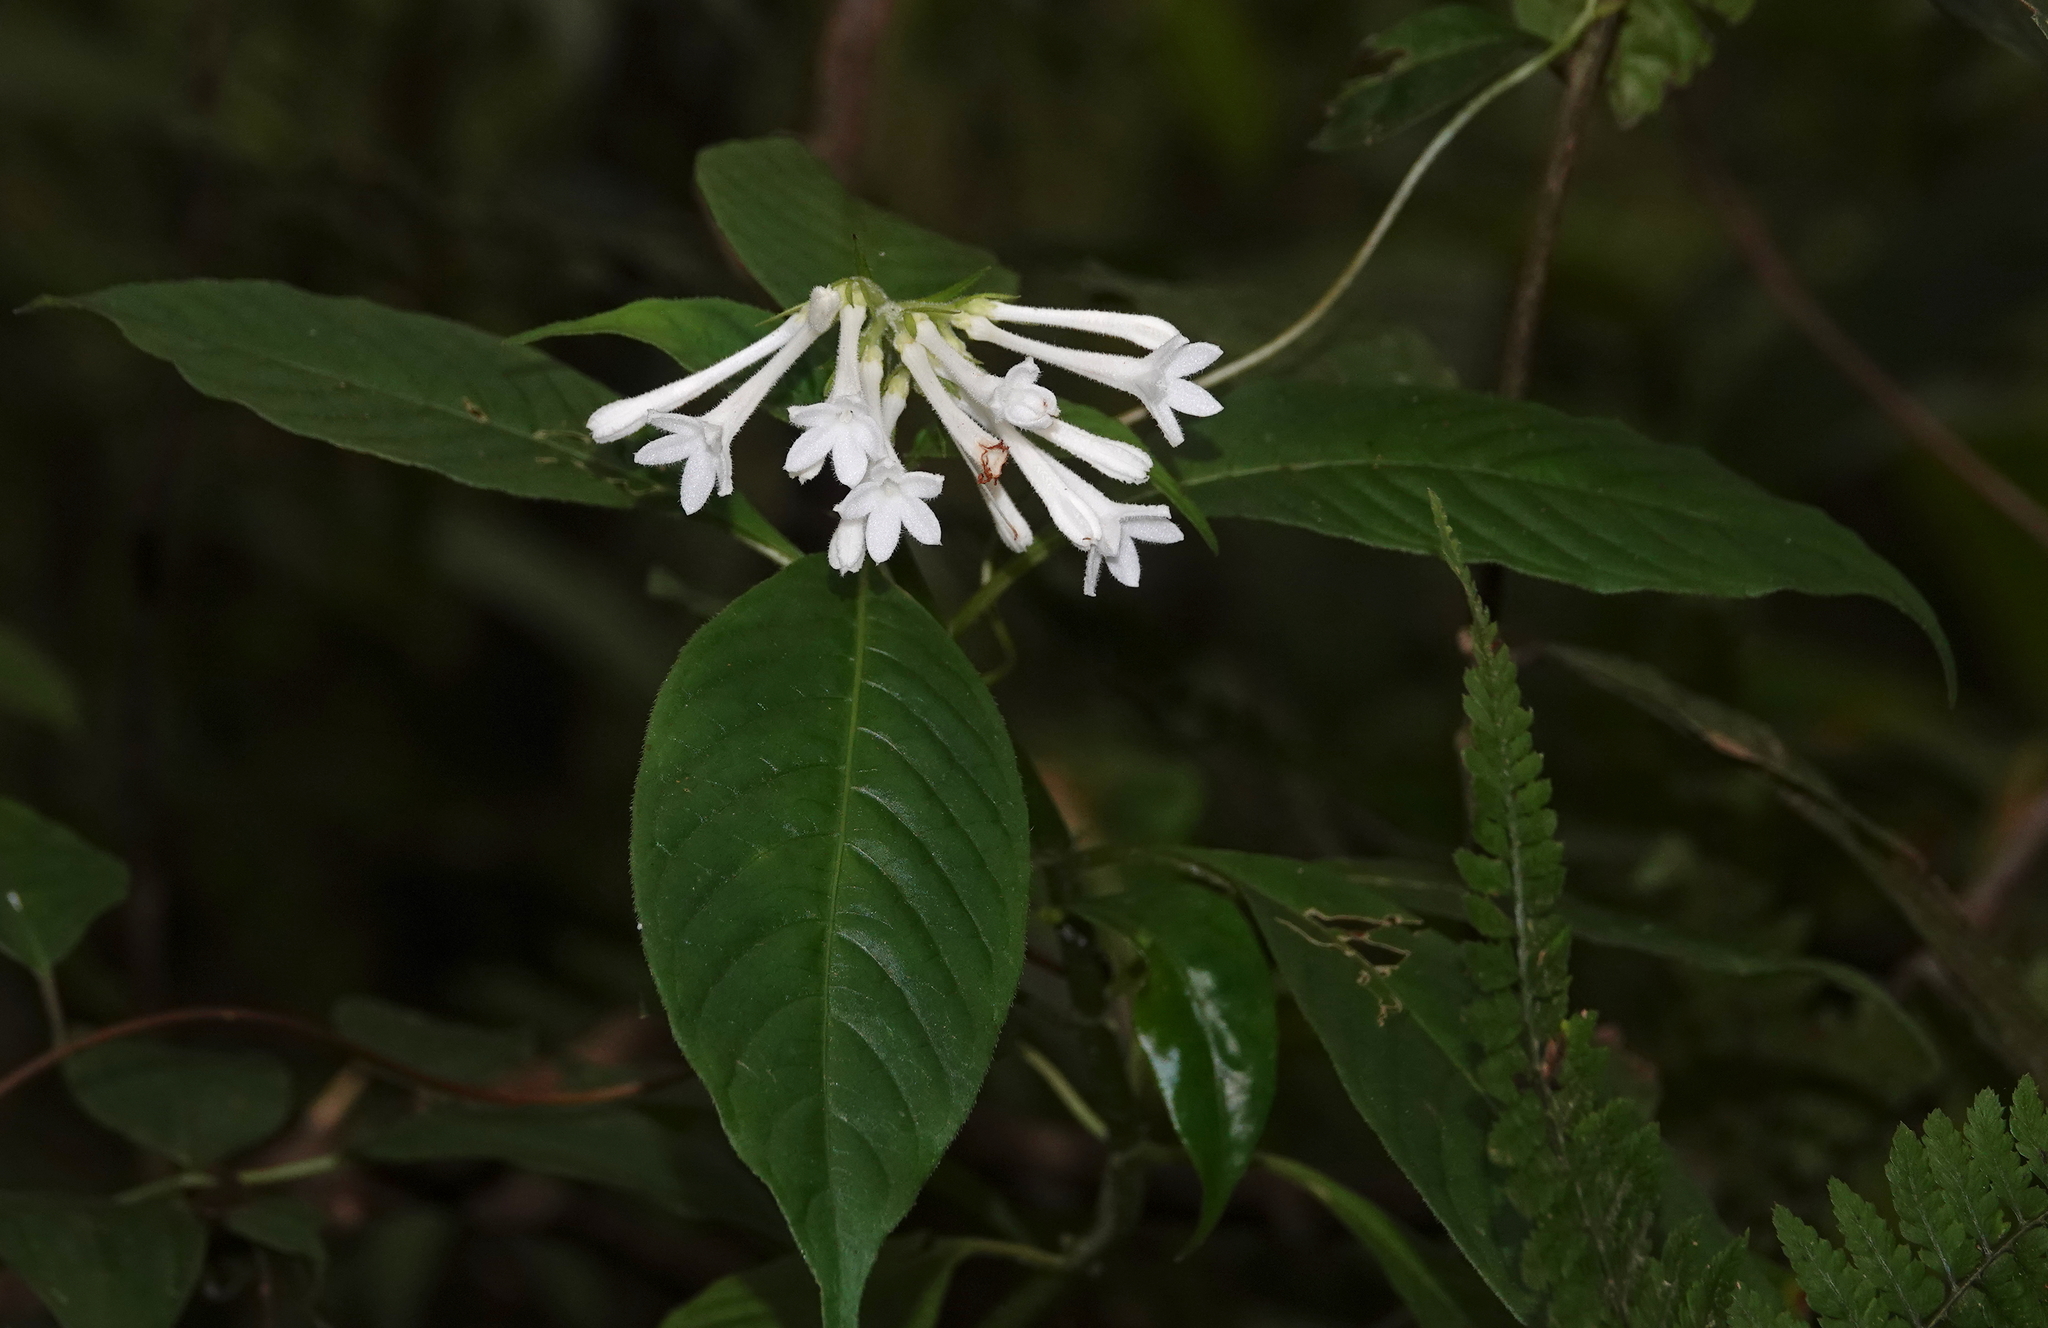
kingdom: Plantae
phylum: Tracheophyta
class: Magnoliopsida
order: Gentianales
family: Rubiaceae
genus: Ophiorrhiza
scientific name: Ophiorrhiza longiflora
